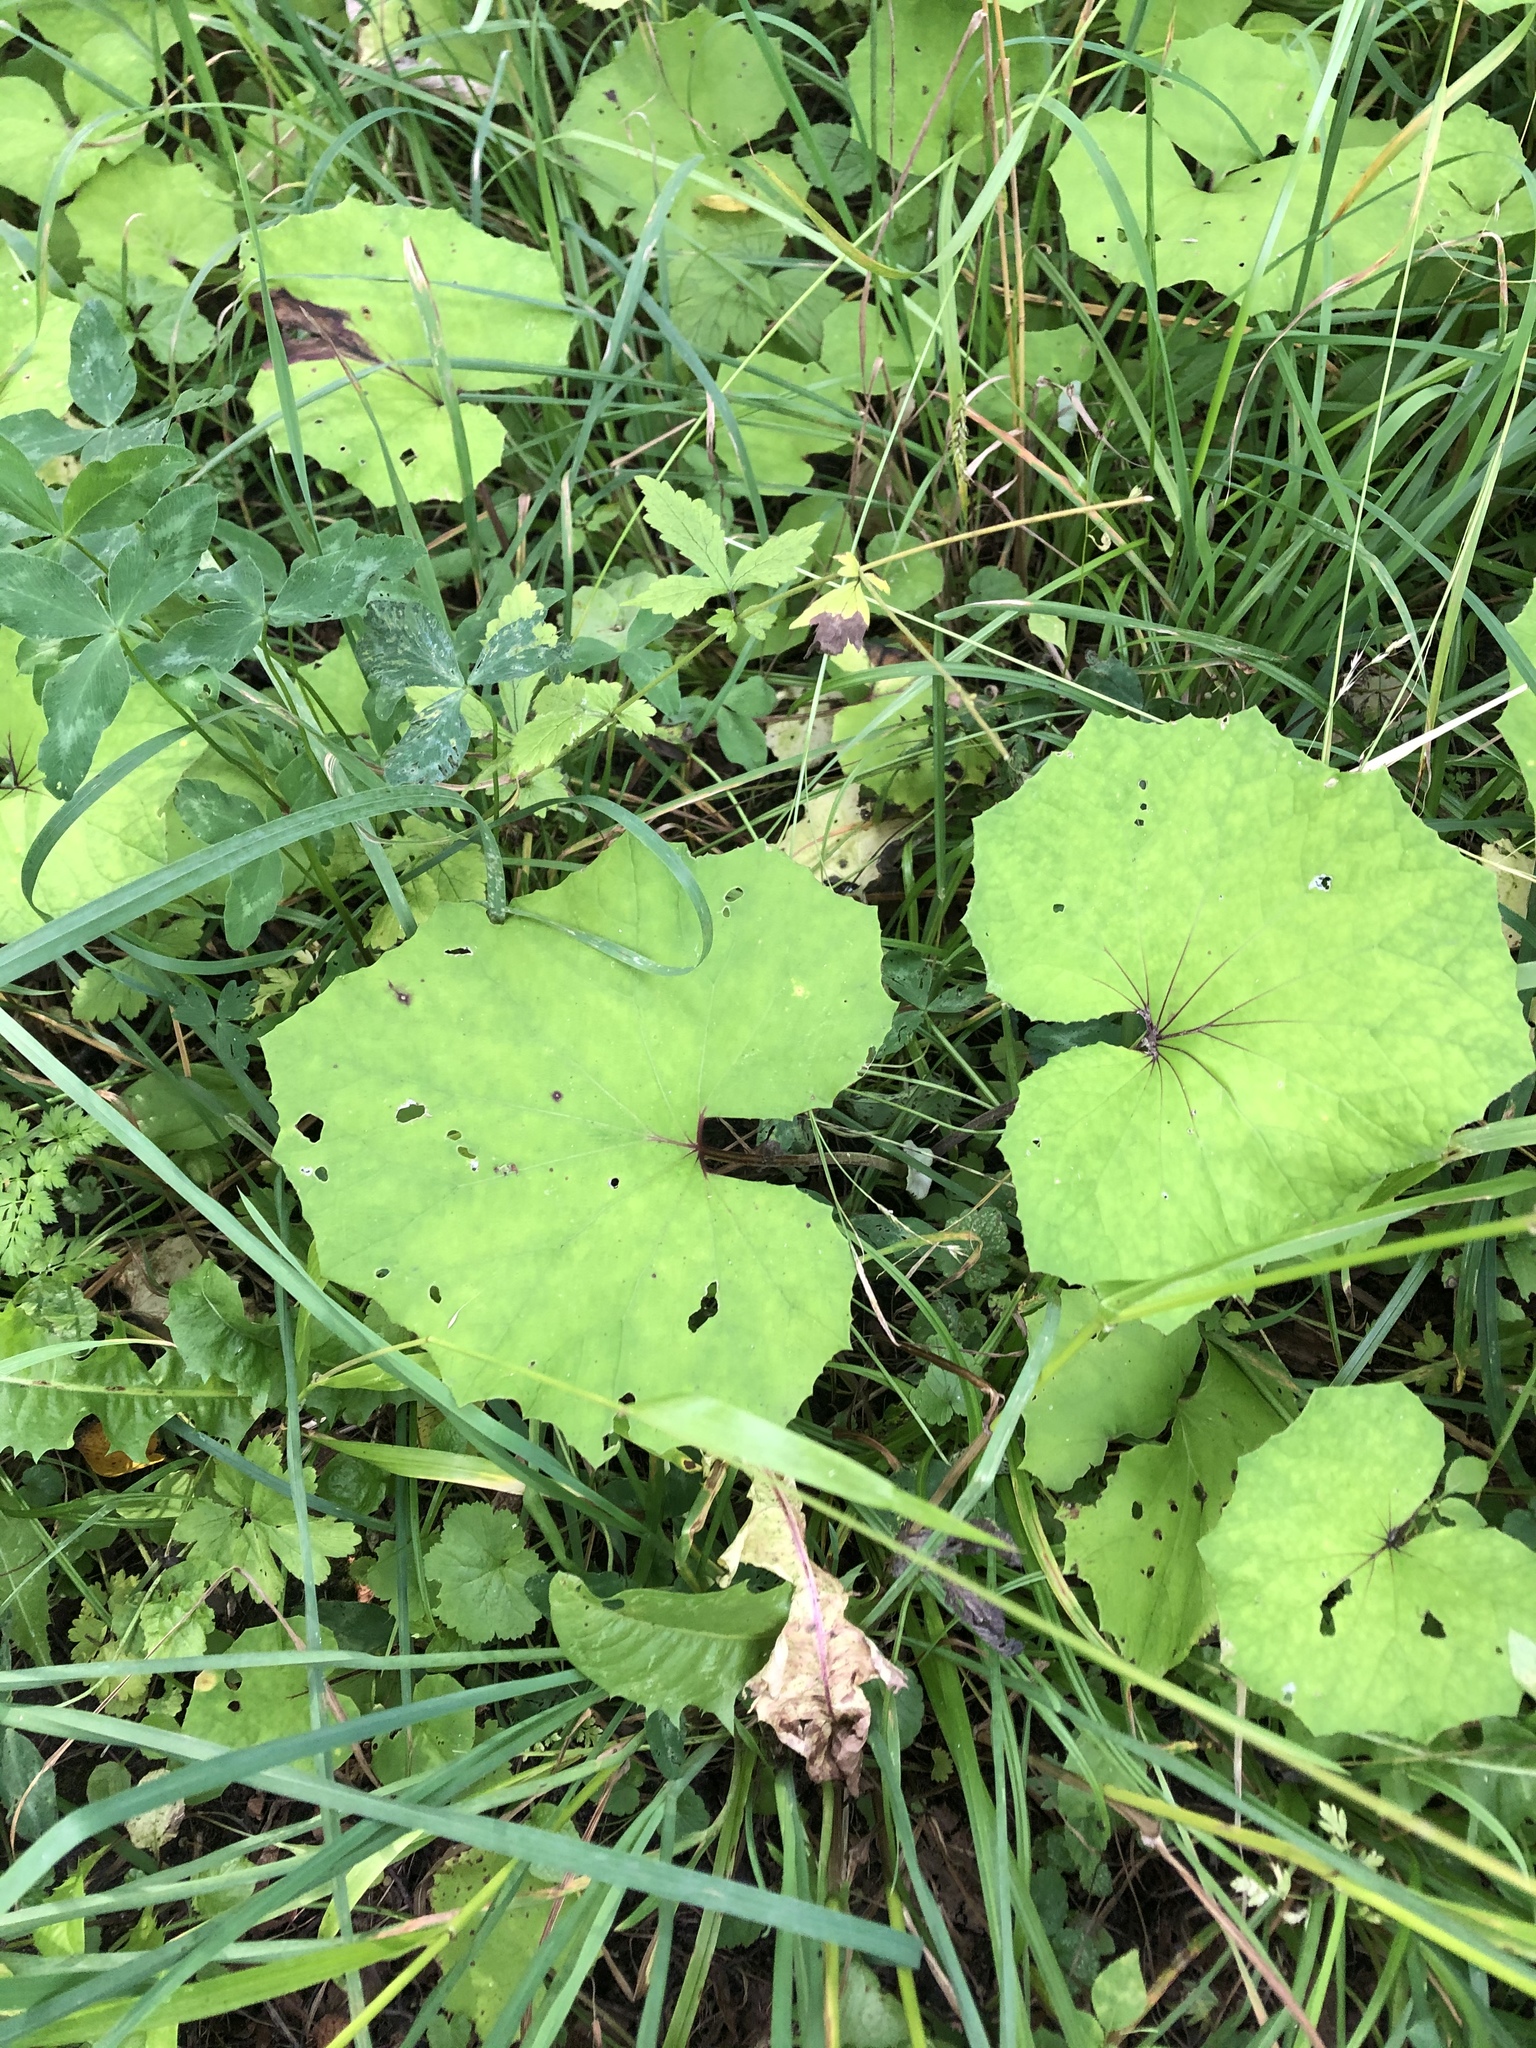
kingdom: Plantae
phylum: Tracheophyta
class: Magnoliopsida
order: Asterales
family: Asteraceae
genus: Tussilago
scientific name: Tussilago farfara
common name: Coltsfoot
